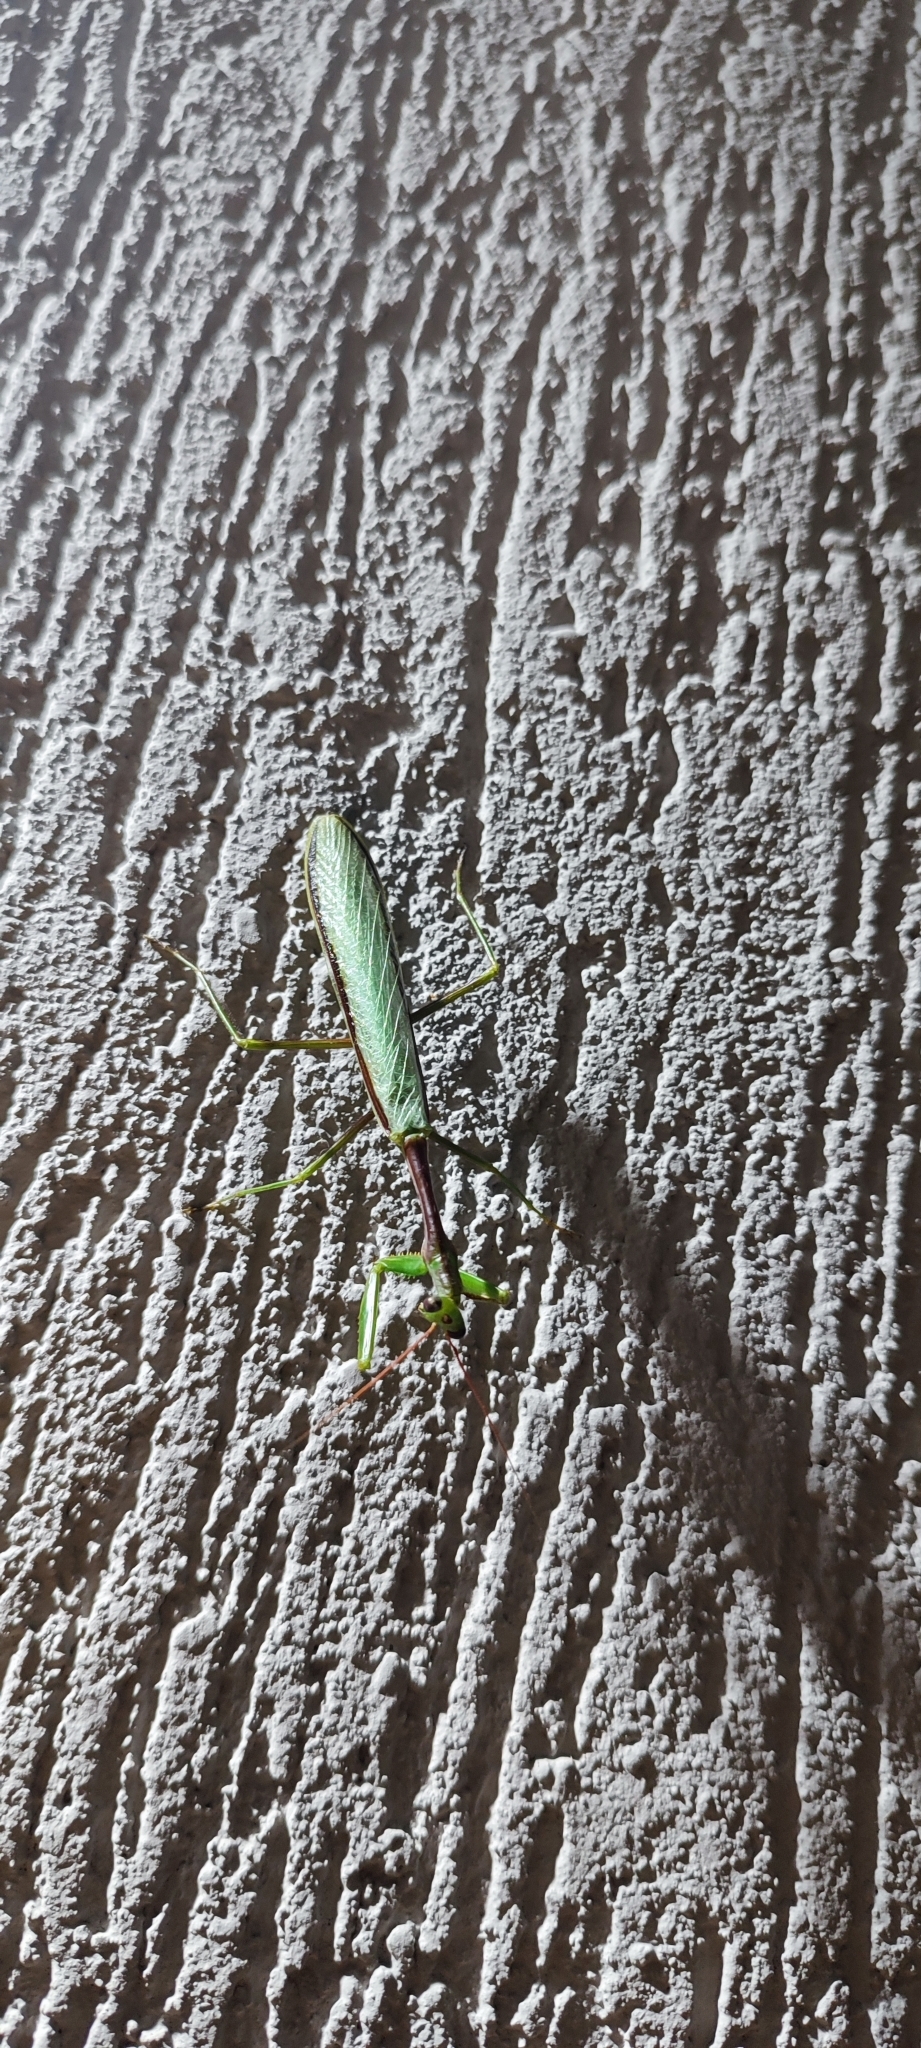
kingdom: Animalia
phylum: Arthropoda
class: Insecta
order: Mantodea
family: Photinaidae
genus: Cardioptera
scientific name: Cardioptera brachyptera
